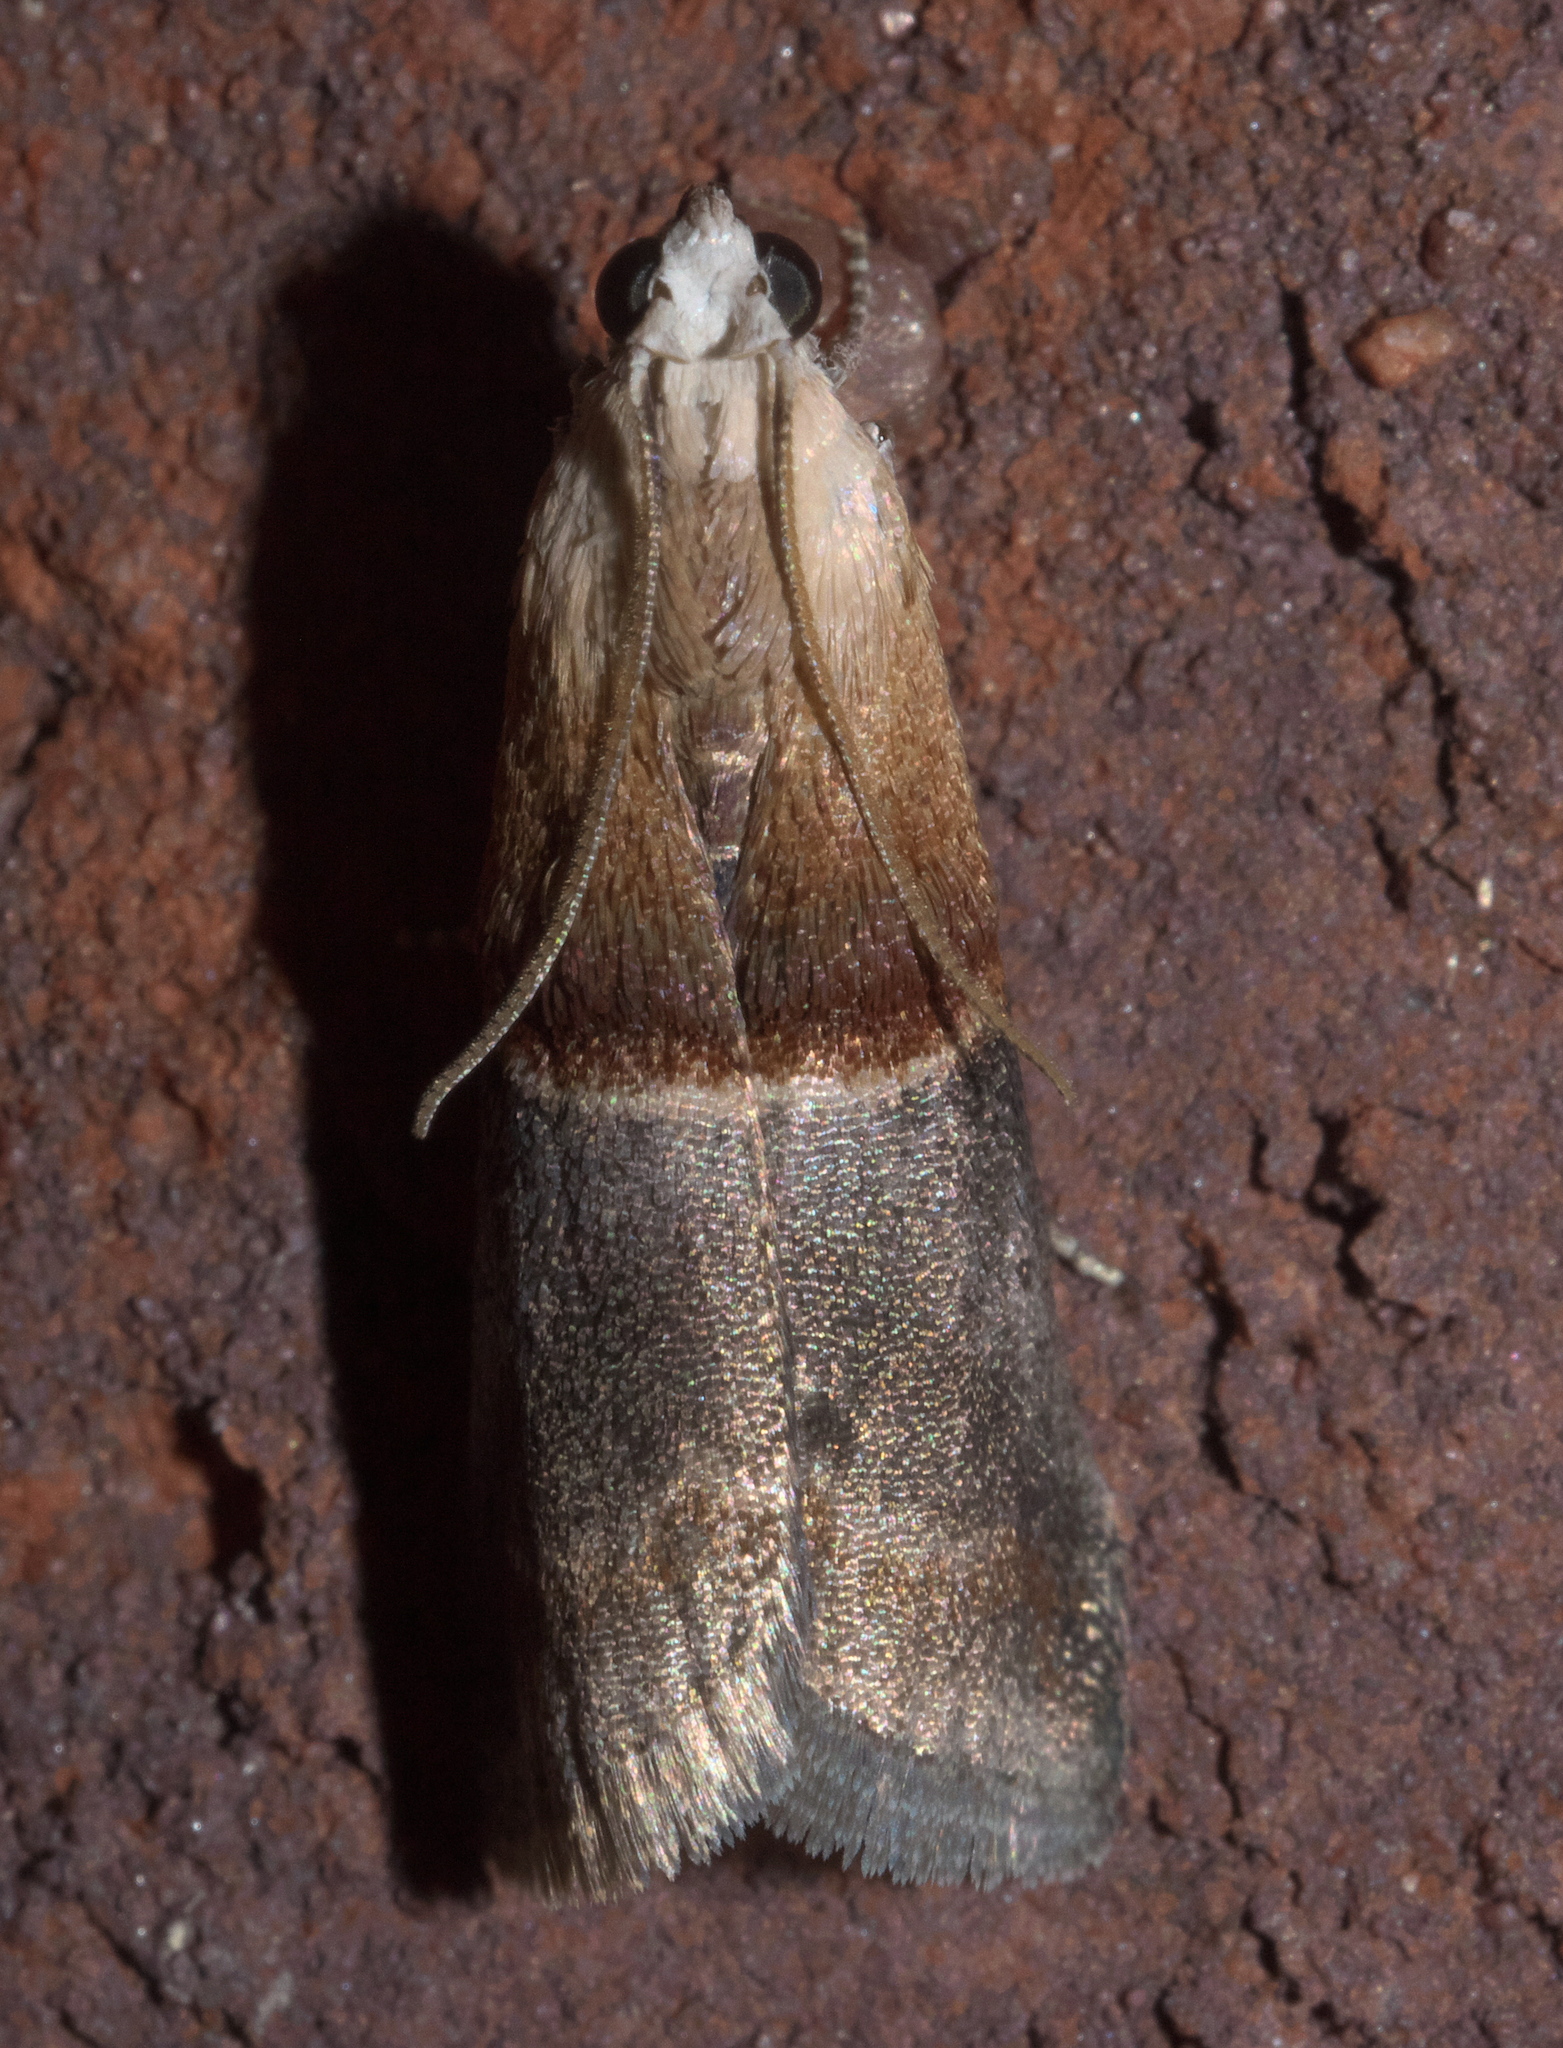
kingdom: Animalia
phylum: Arthropoda
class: Insecta
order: Lepidoptera
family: Pyralidae
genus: Acrobasis
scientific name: Acrobasis demotella
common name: Walnut shoot moth
